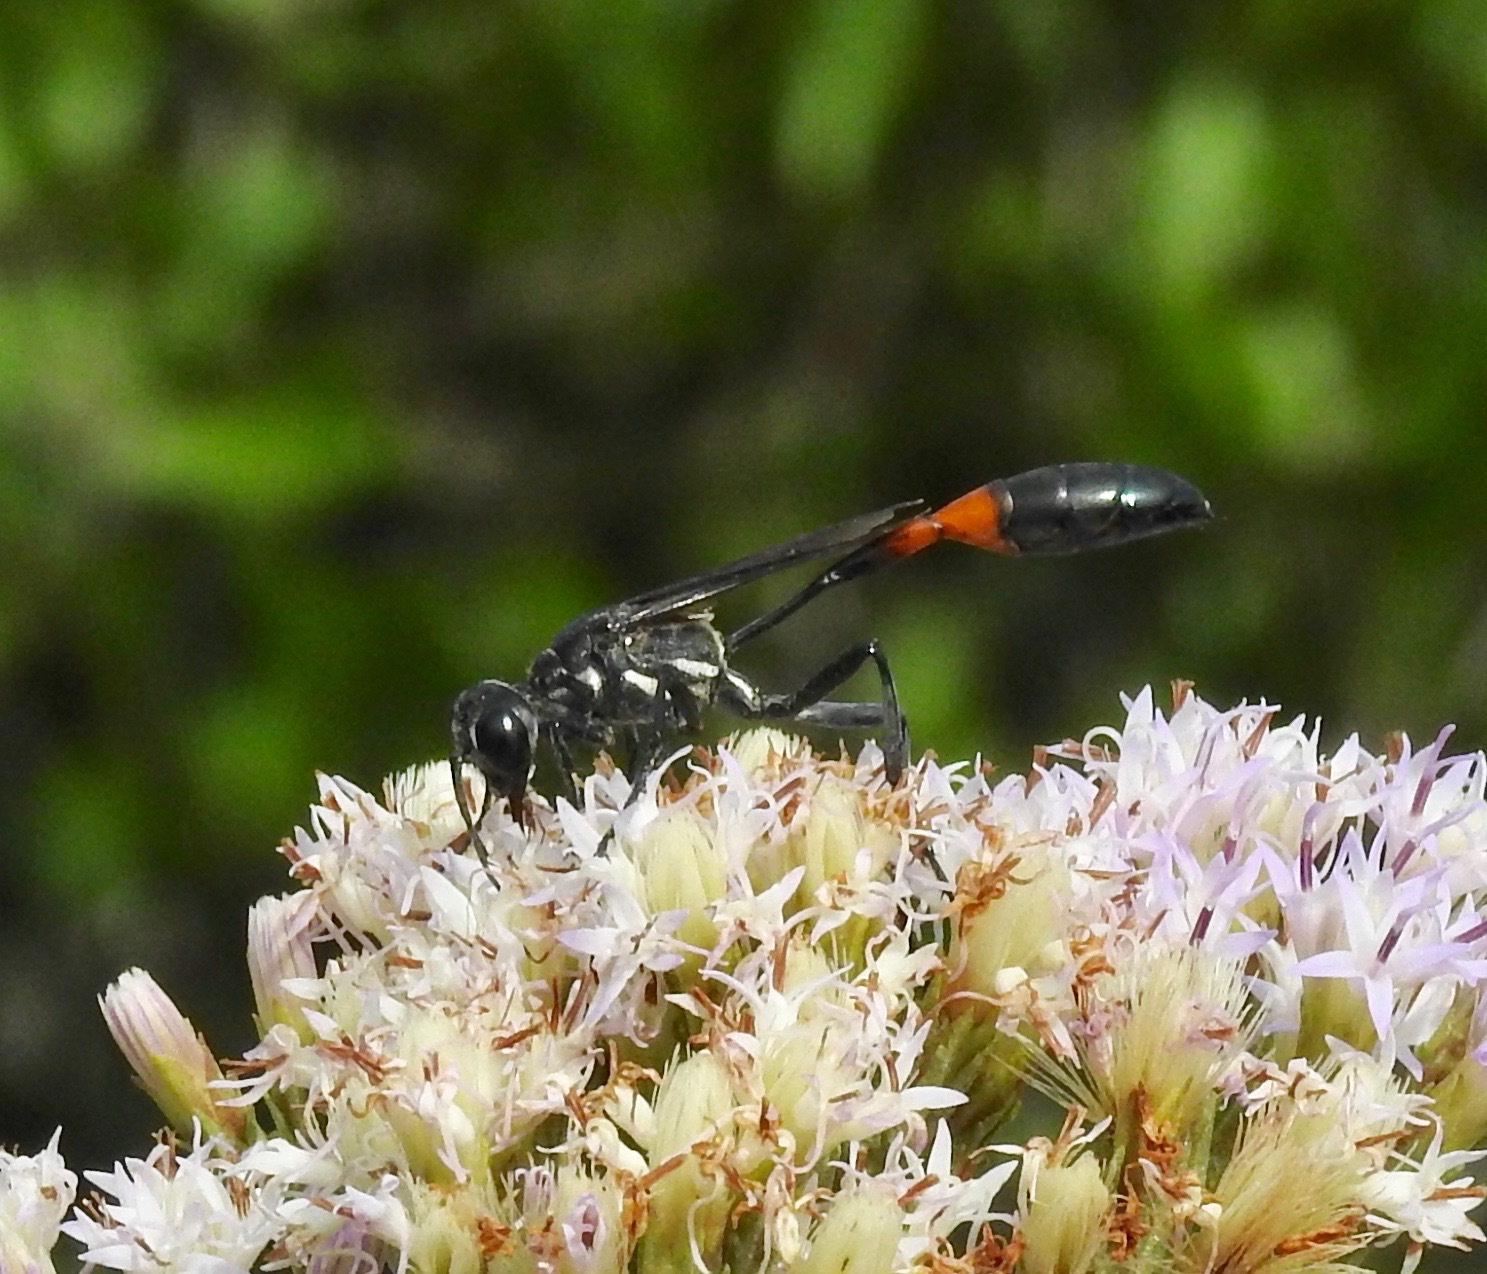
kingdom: Animalia
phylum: Arthropoda
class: Insecta
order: Hymenoptera
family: Sphecidae
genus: Ammophila
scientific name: Ammophila procera
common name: Common thread-waisted wasp
